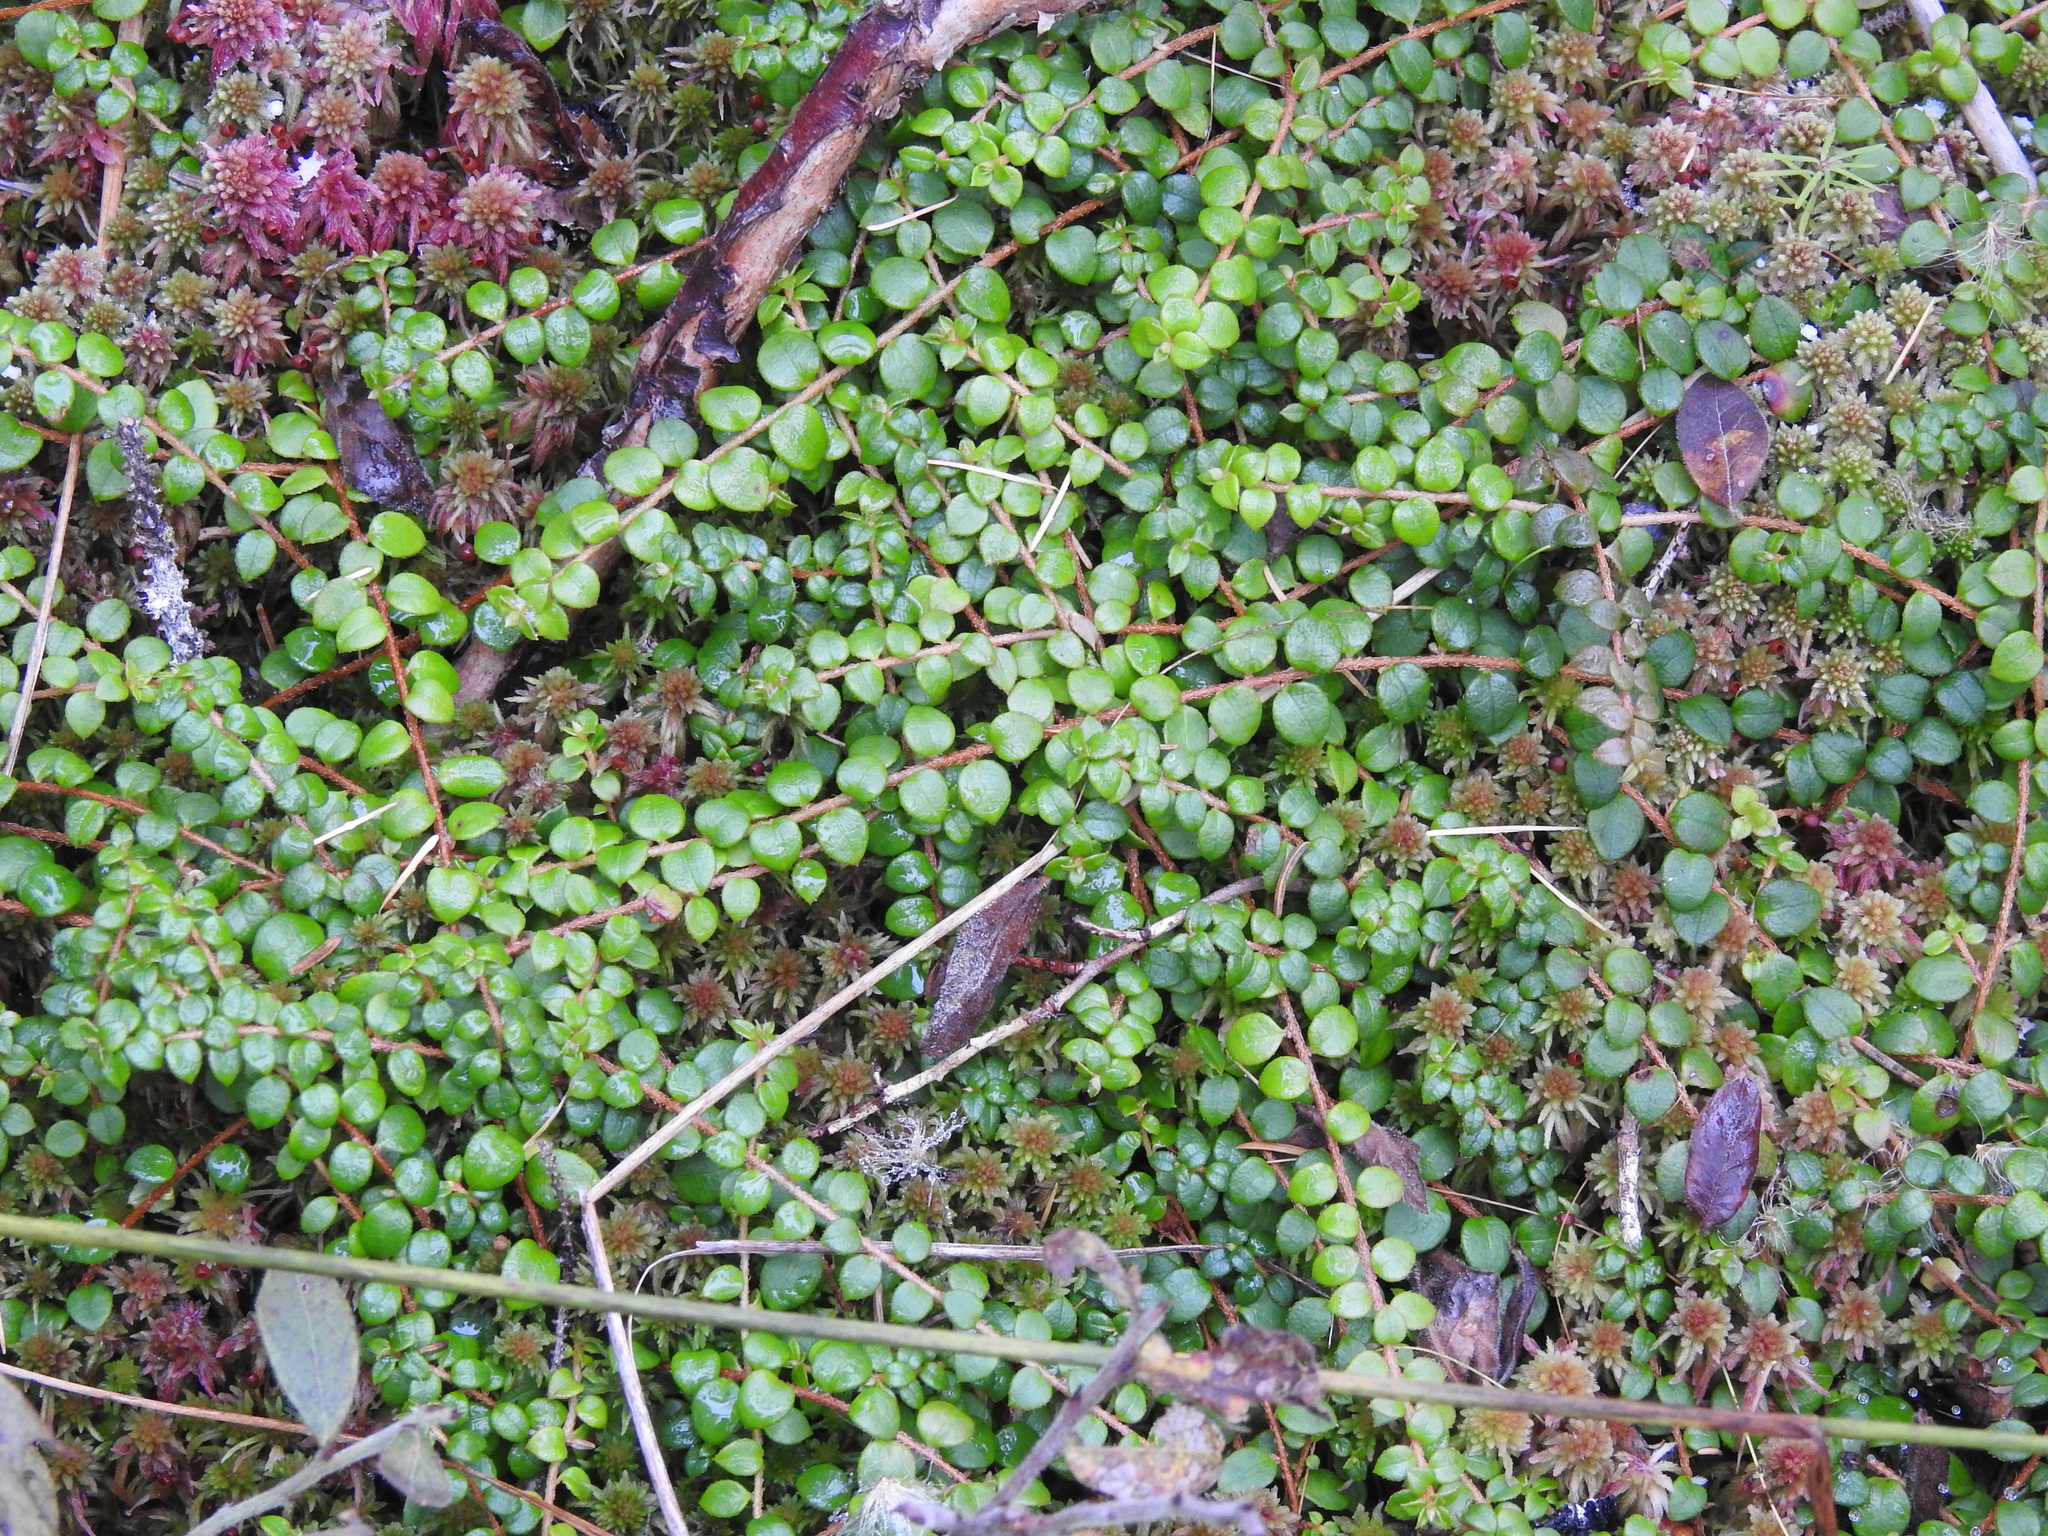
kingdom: Plantae
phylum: Tracheophyta
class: Magnoliopsida
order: Ericales
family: Ericaceae
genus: Gaultheria
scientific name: Gaultheria hispidula
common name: Cancer wintergreen
